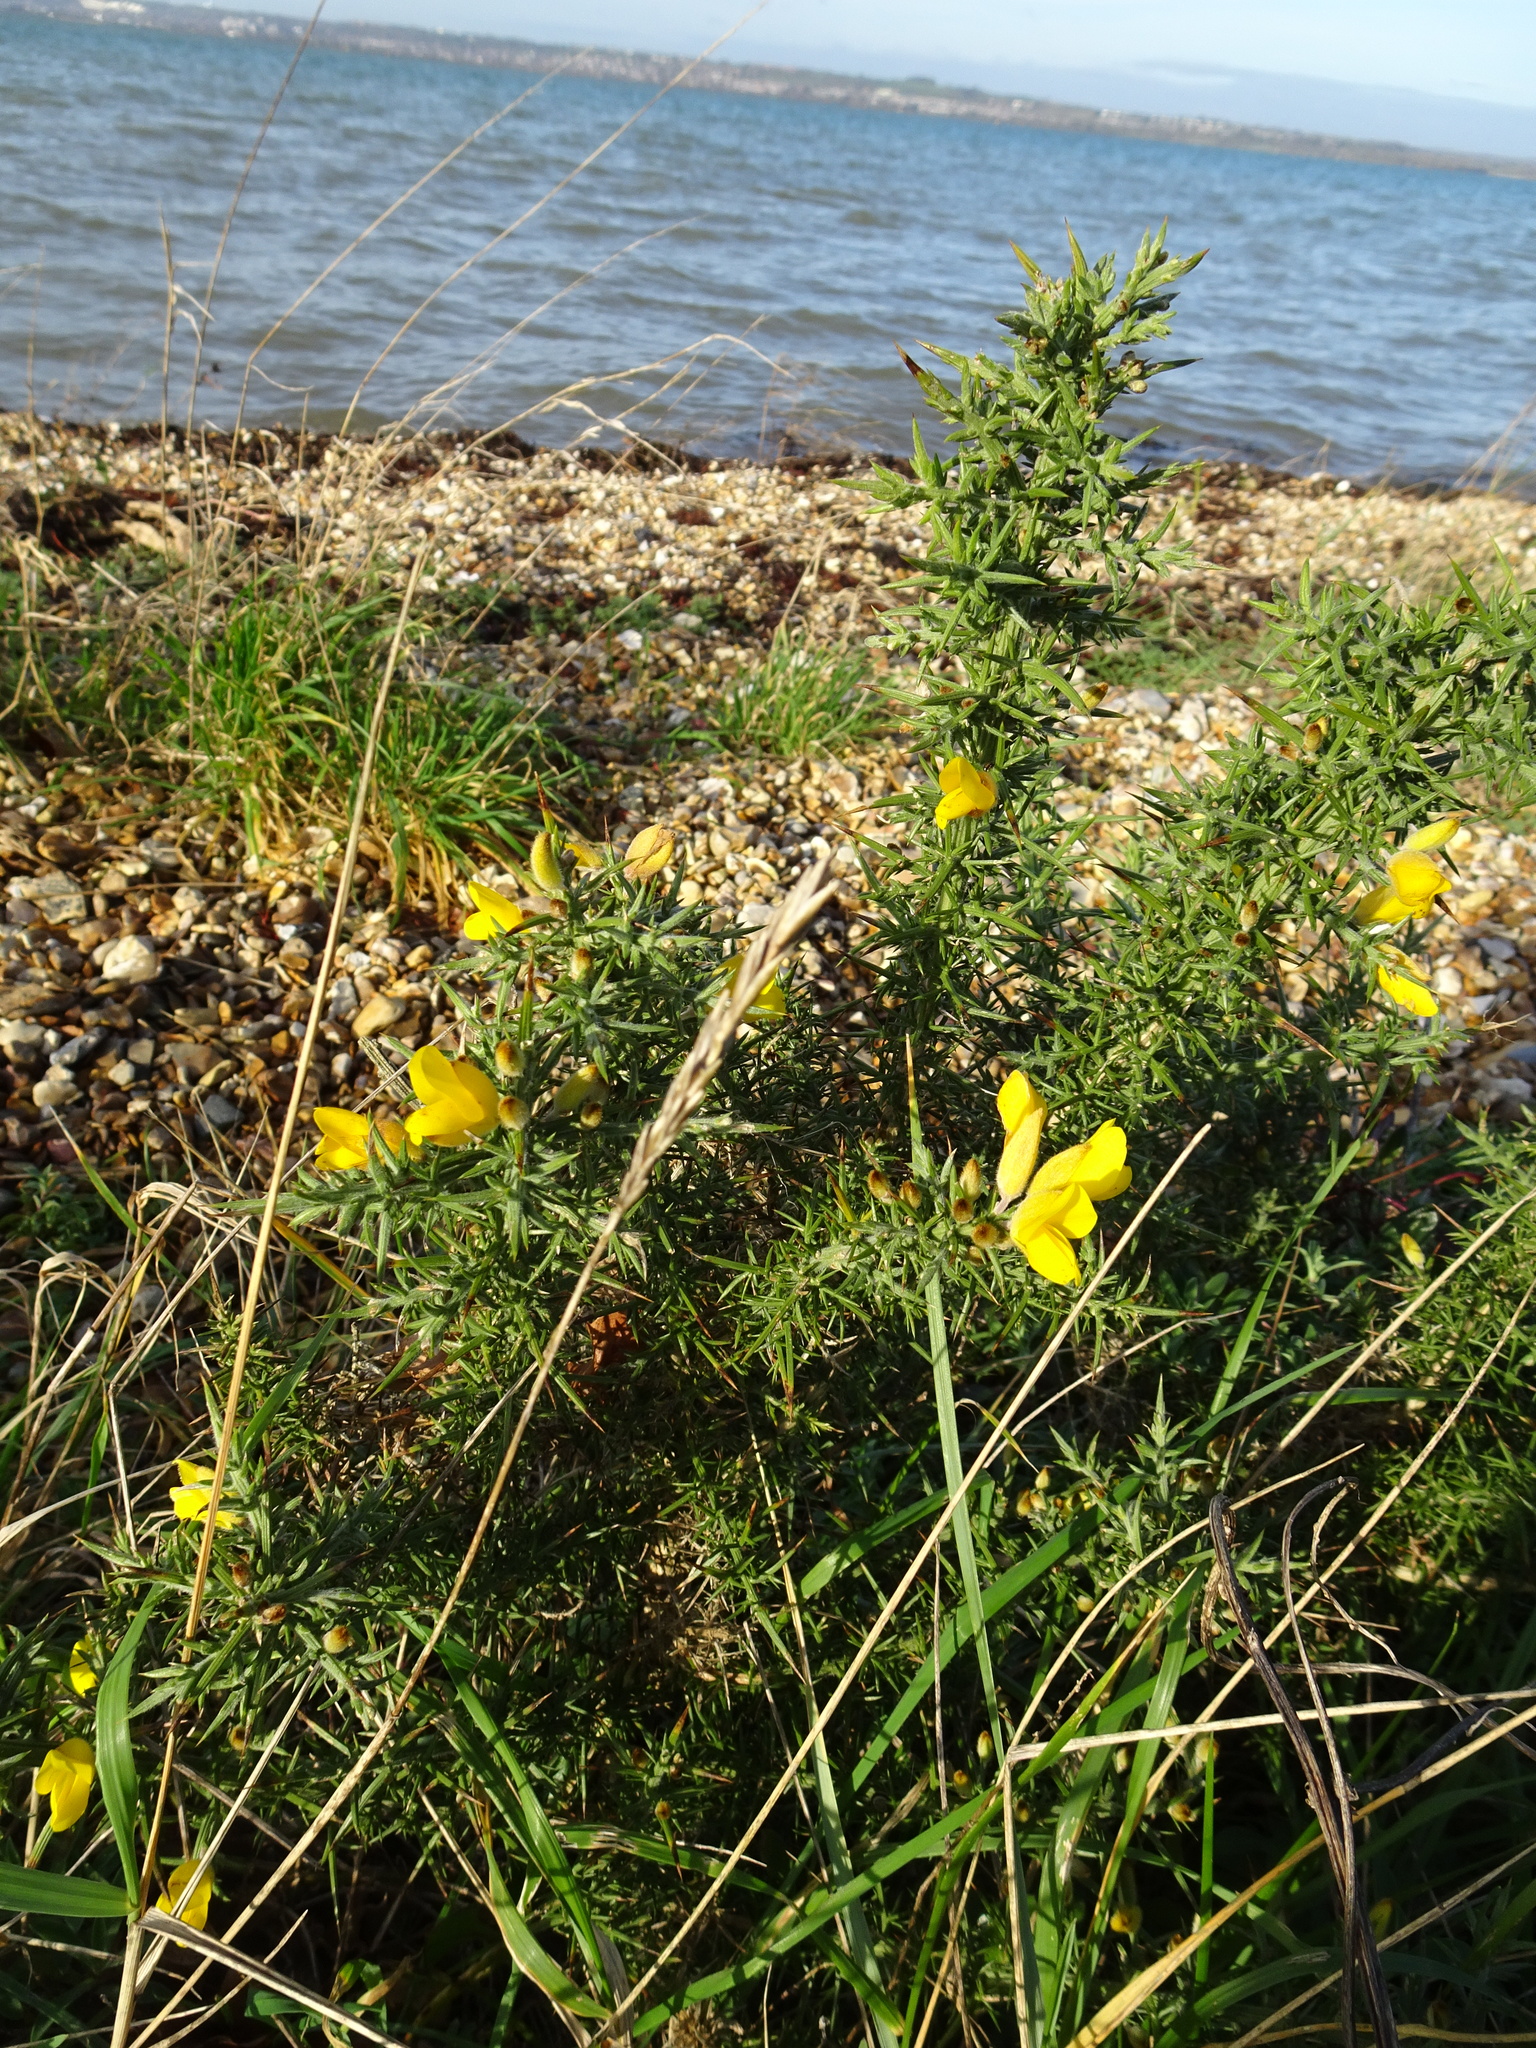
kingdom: Plantae
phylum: Tracheophyta
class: Magnoliopsida
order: Fabales
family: Fabaceae
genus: Ulex
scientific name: Ulex europaeus
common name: Common gorse
